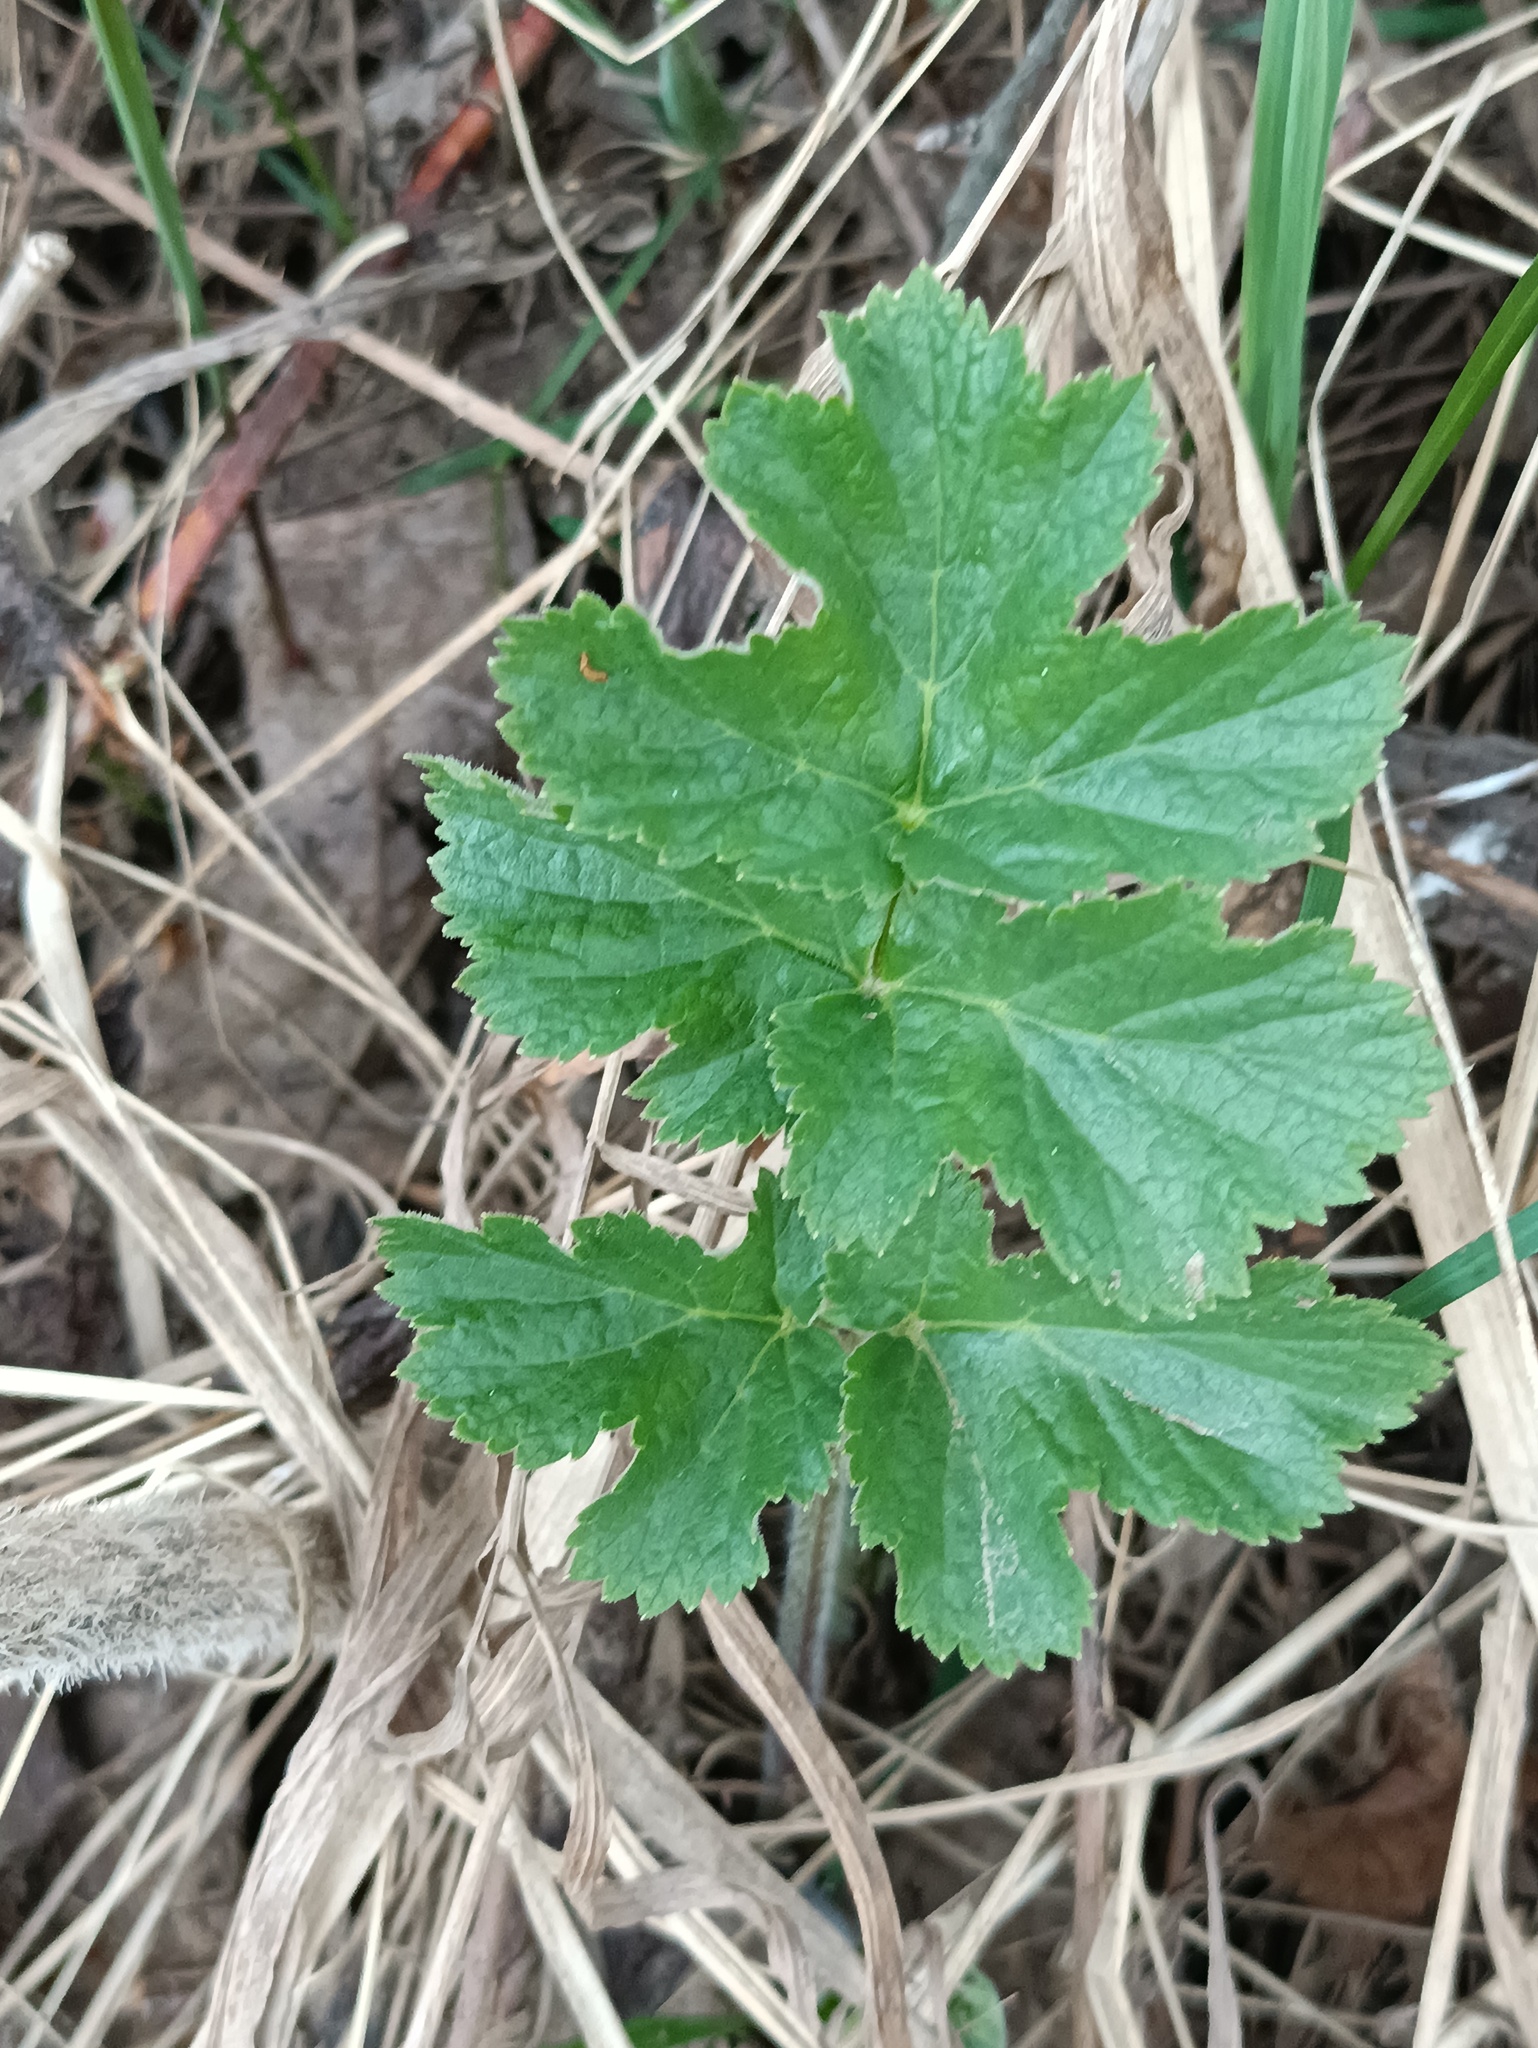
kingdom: Plantae
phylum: Tracheophyta
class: Magnoliopsida
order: Apiales
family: Apiaceae
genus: Heracleum
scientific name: Heracleum sphondylium
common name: Hogweed
